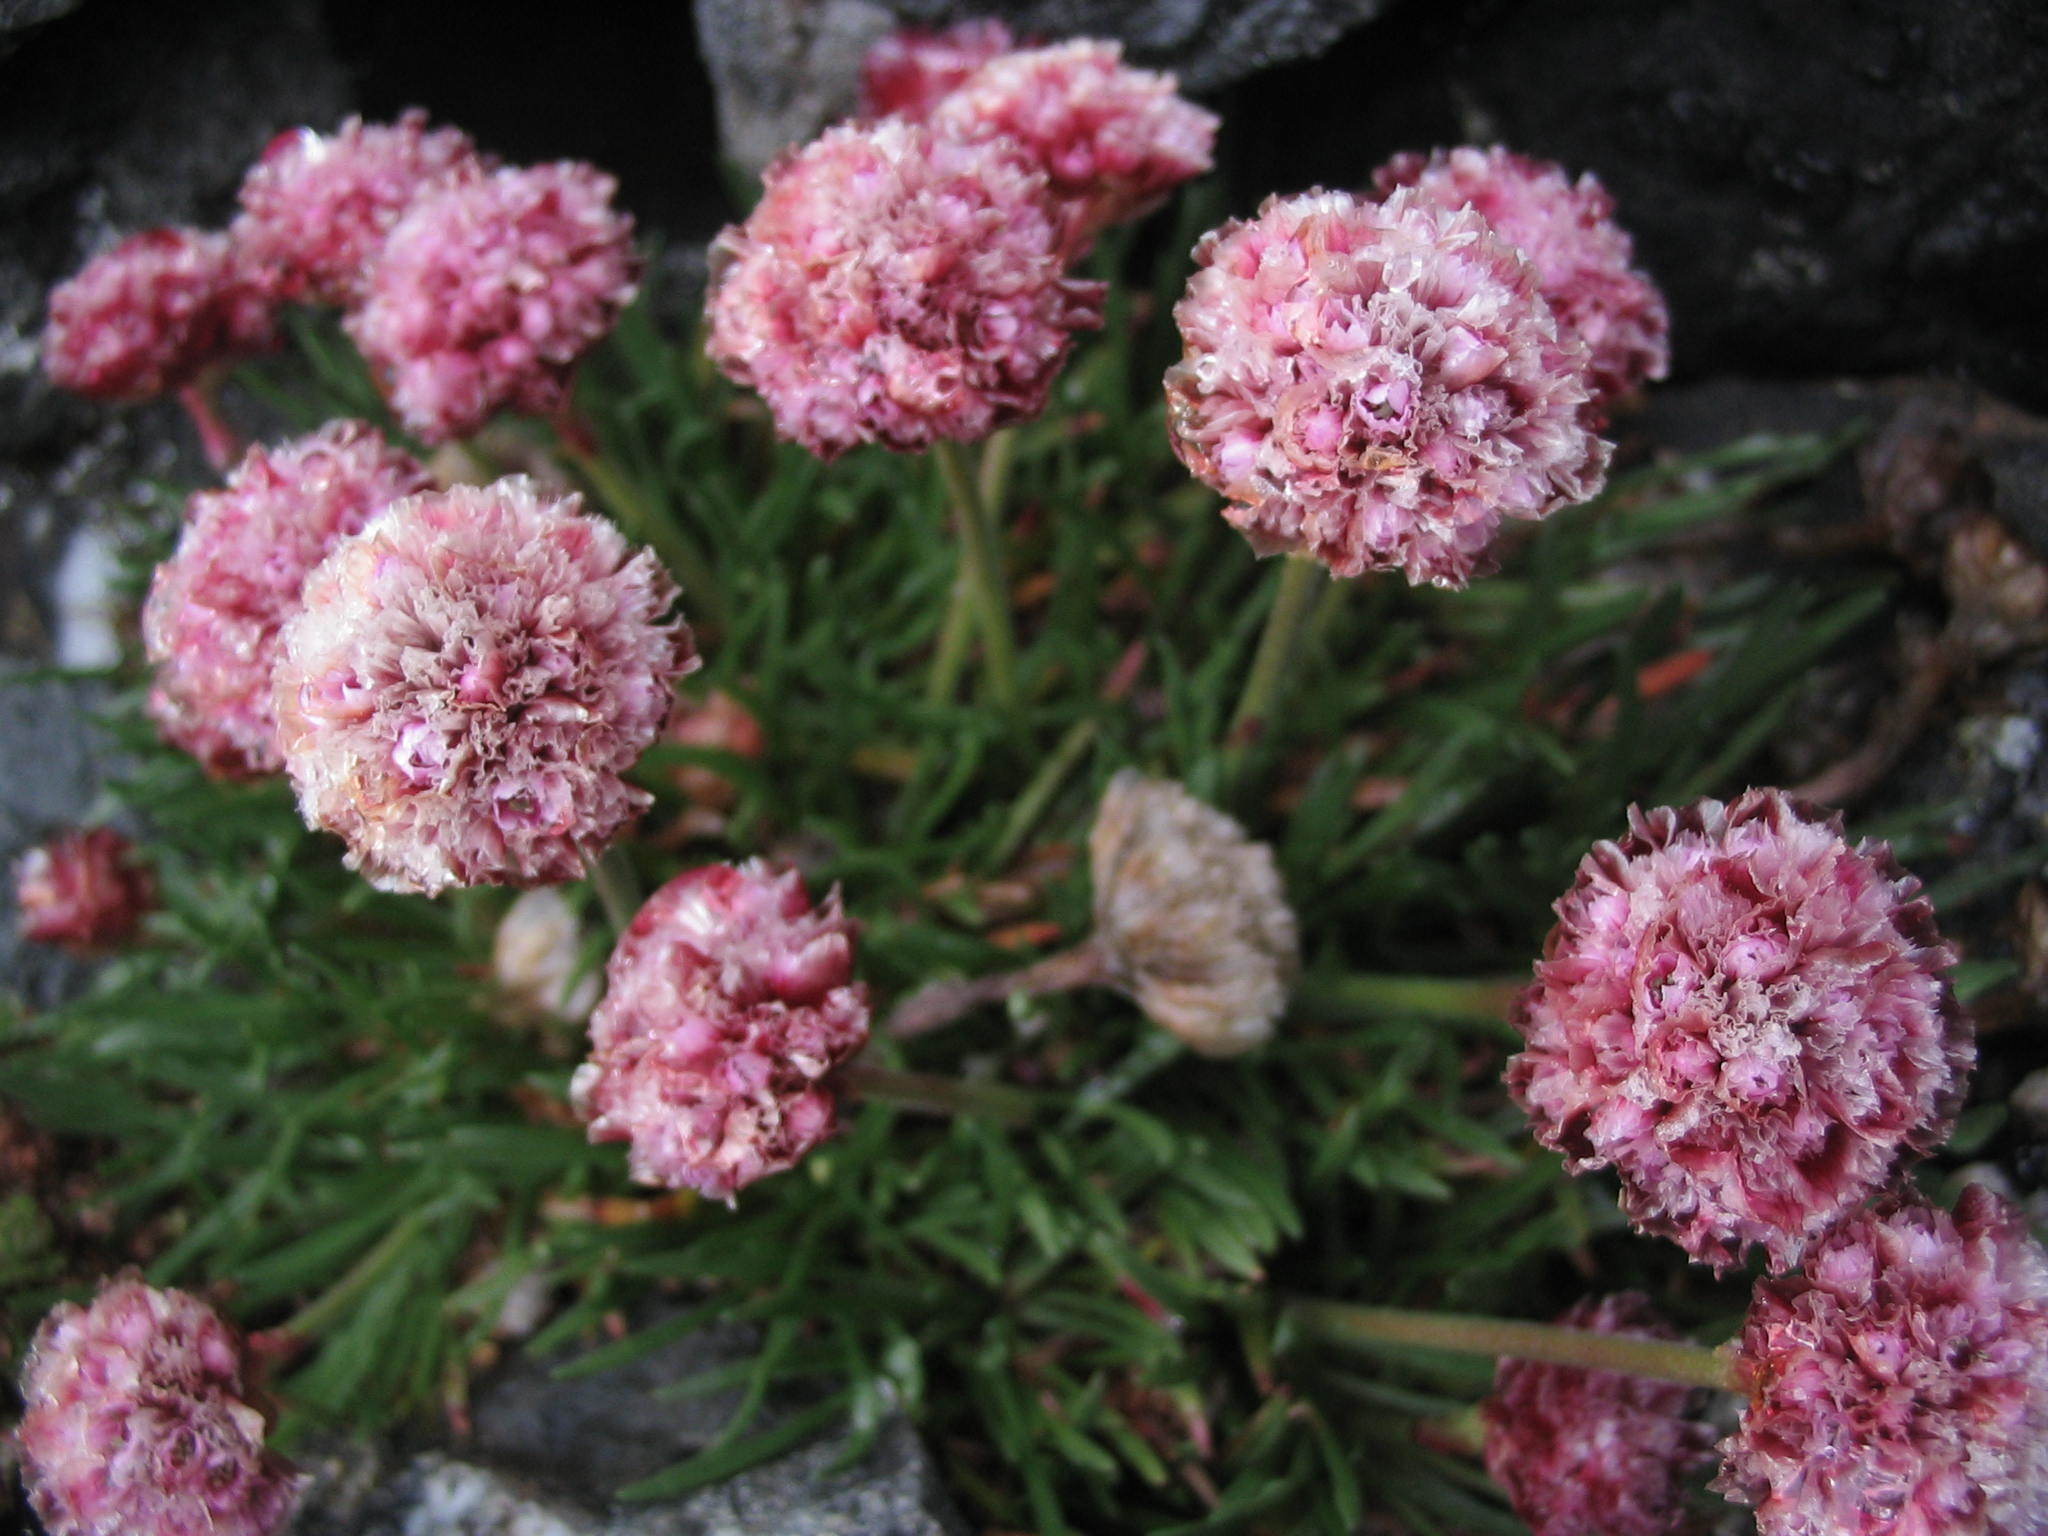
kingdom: Plantae
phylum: Tracheophyta
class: Magnoliopsida
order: Caryophyllales
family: Plumbaginaceae
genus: Armeria
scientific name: Armeria curvifolia
